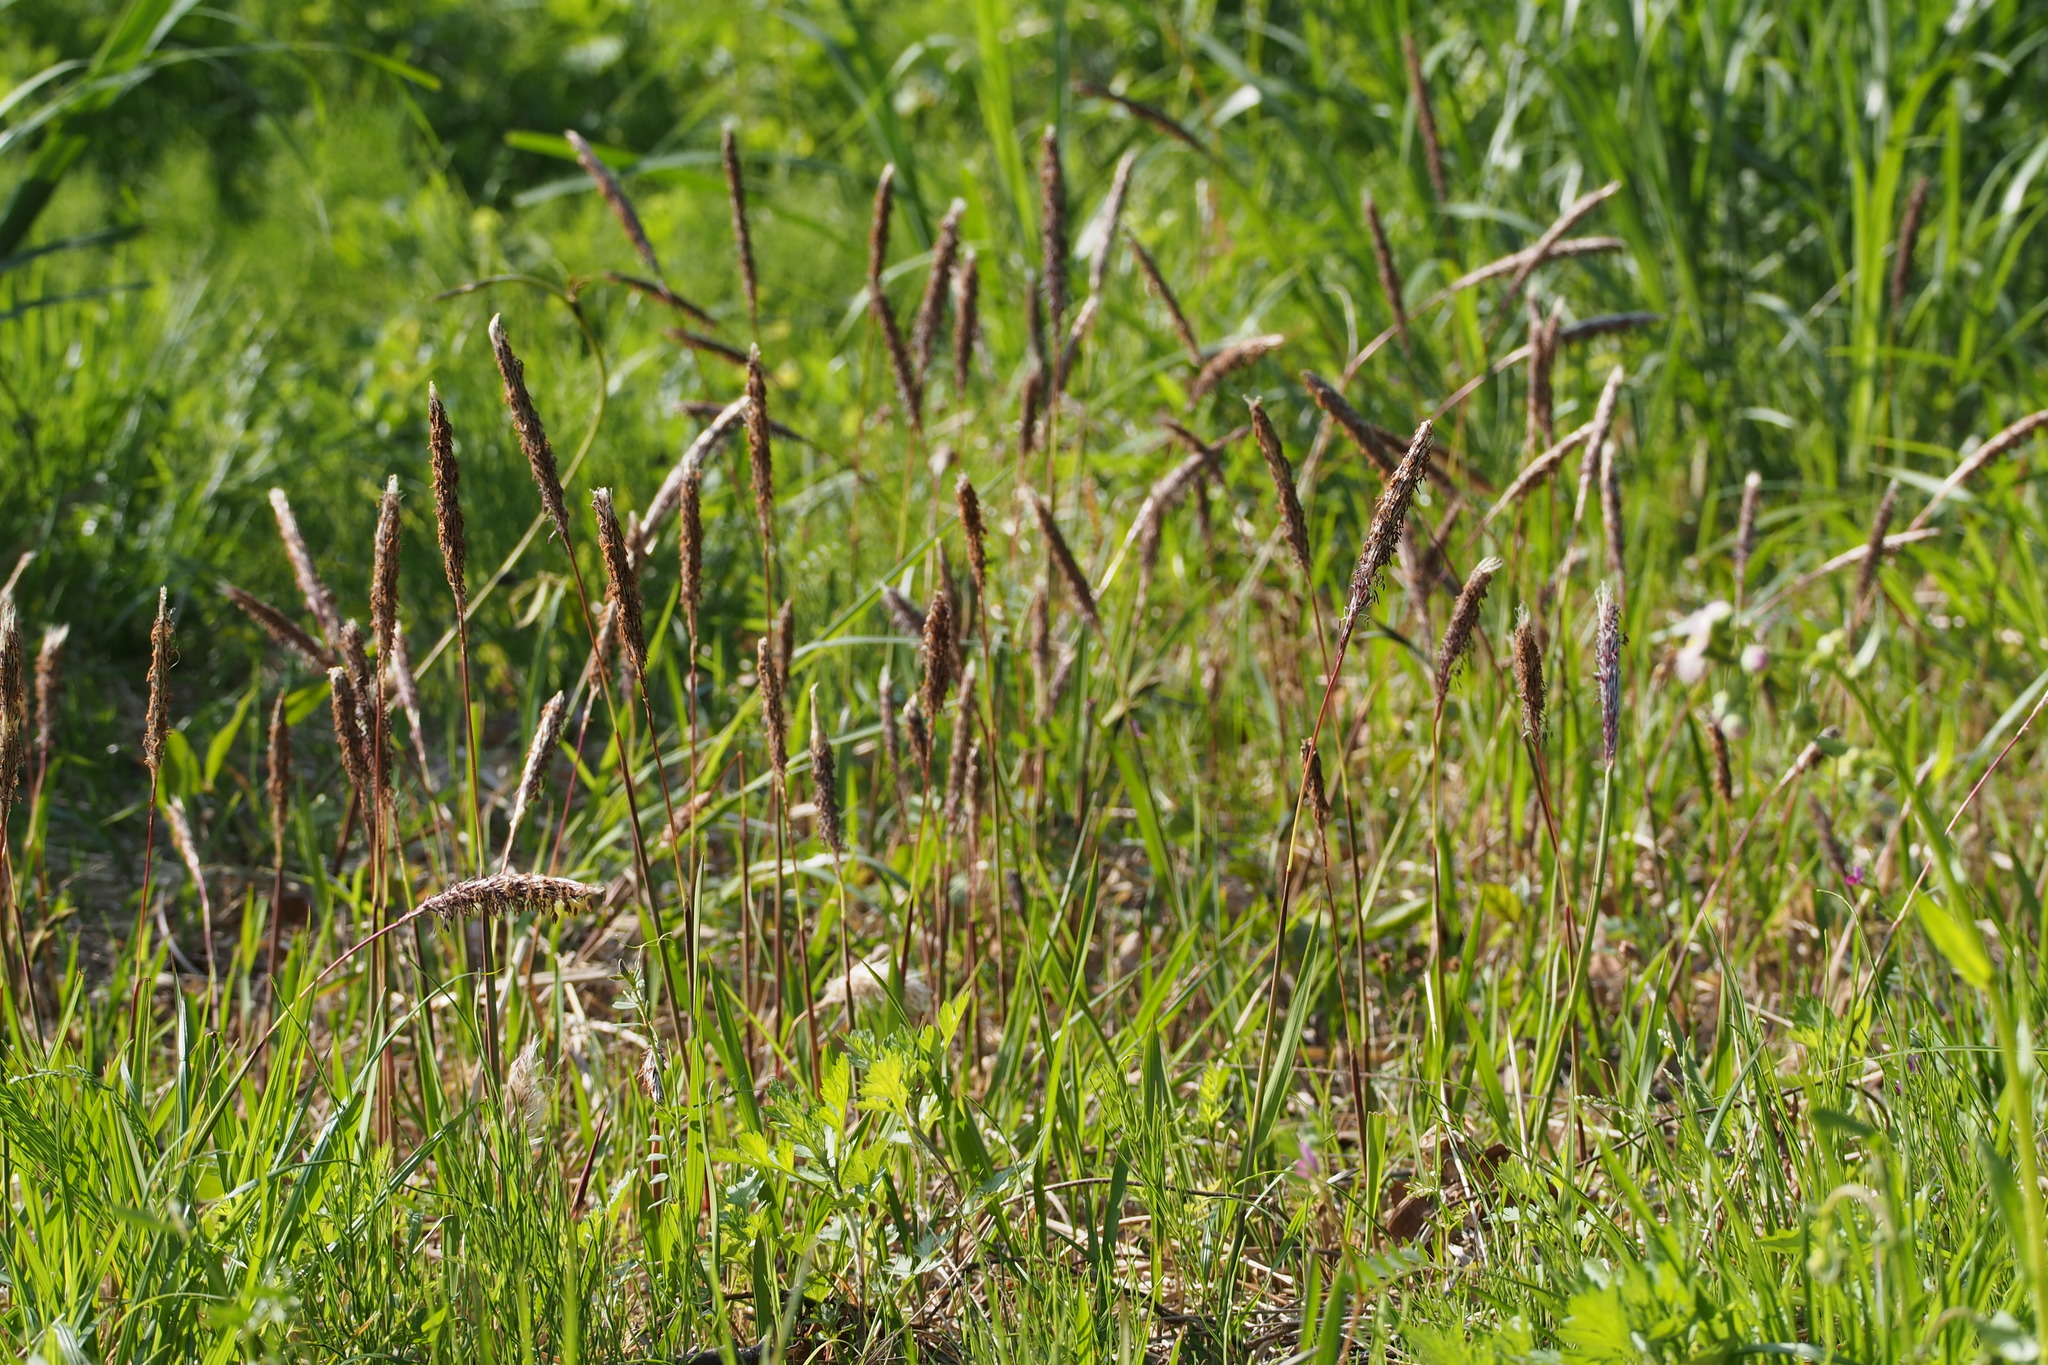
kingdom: Plantae
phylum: Tracheophyta
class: Liliopsida
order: Poales
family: Poaceae
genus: Imperata
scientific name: Imperata cylindrica
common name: Cogongrass
